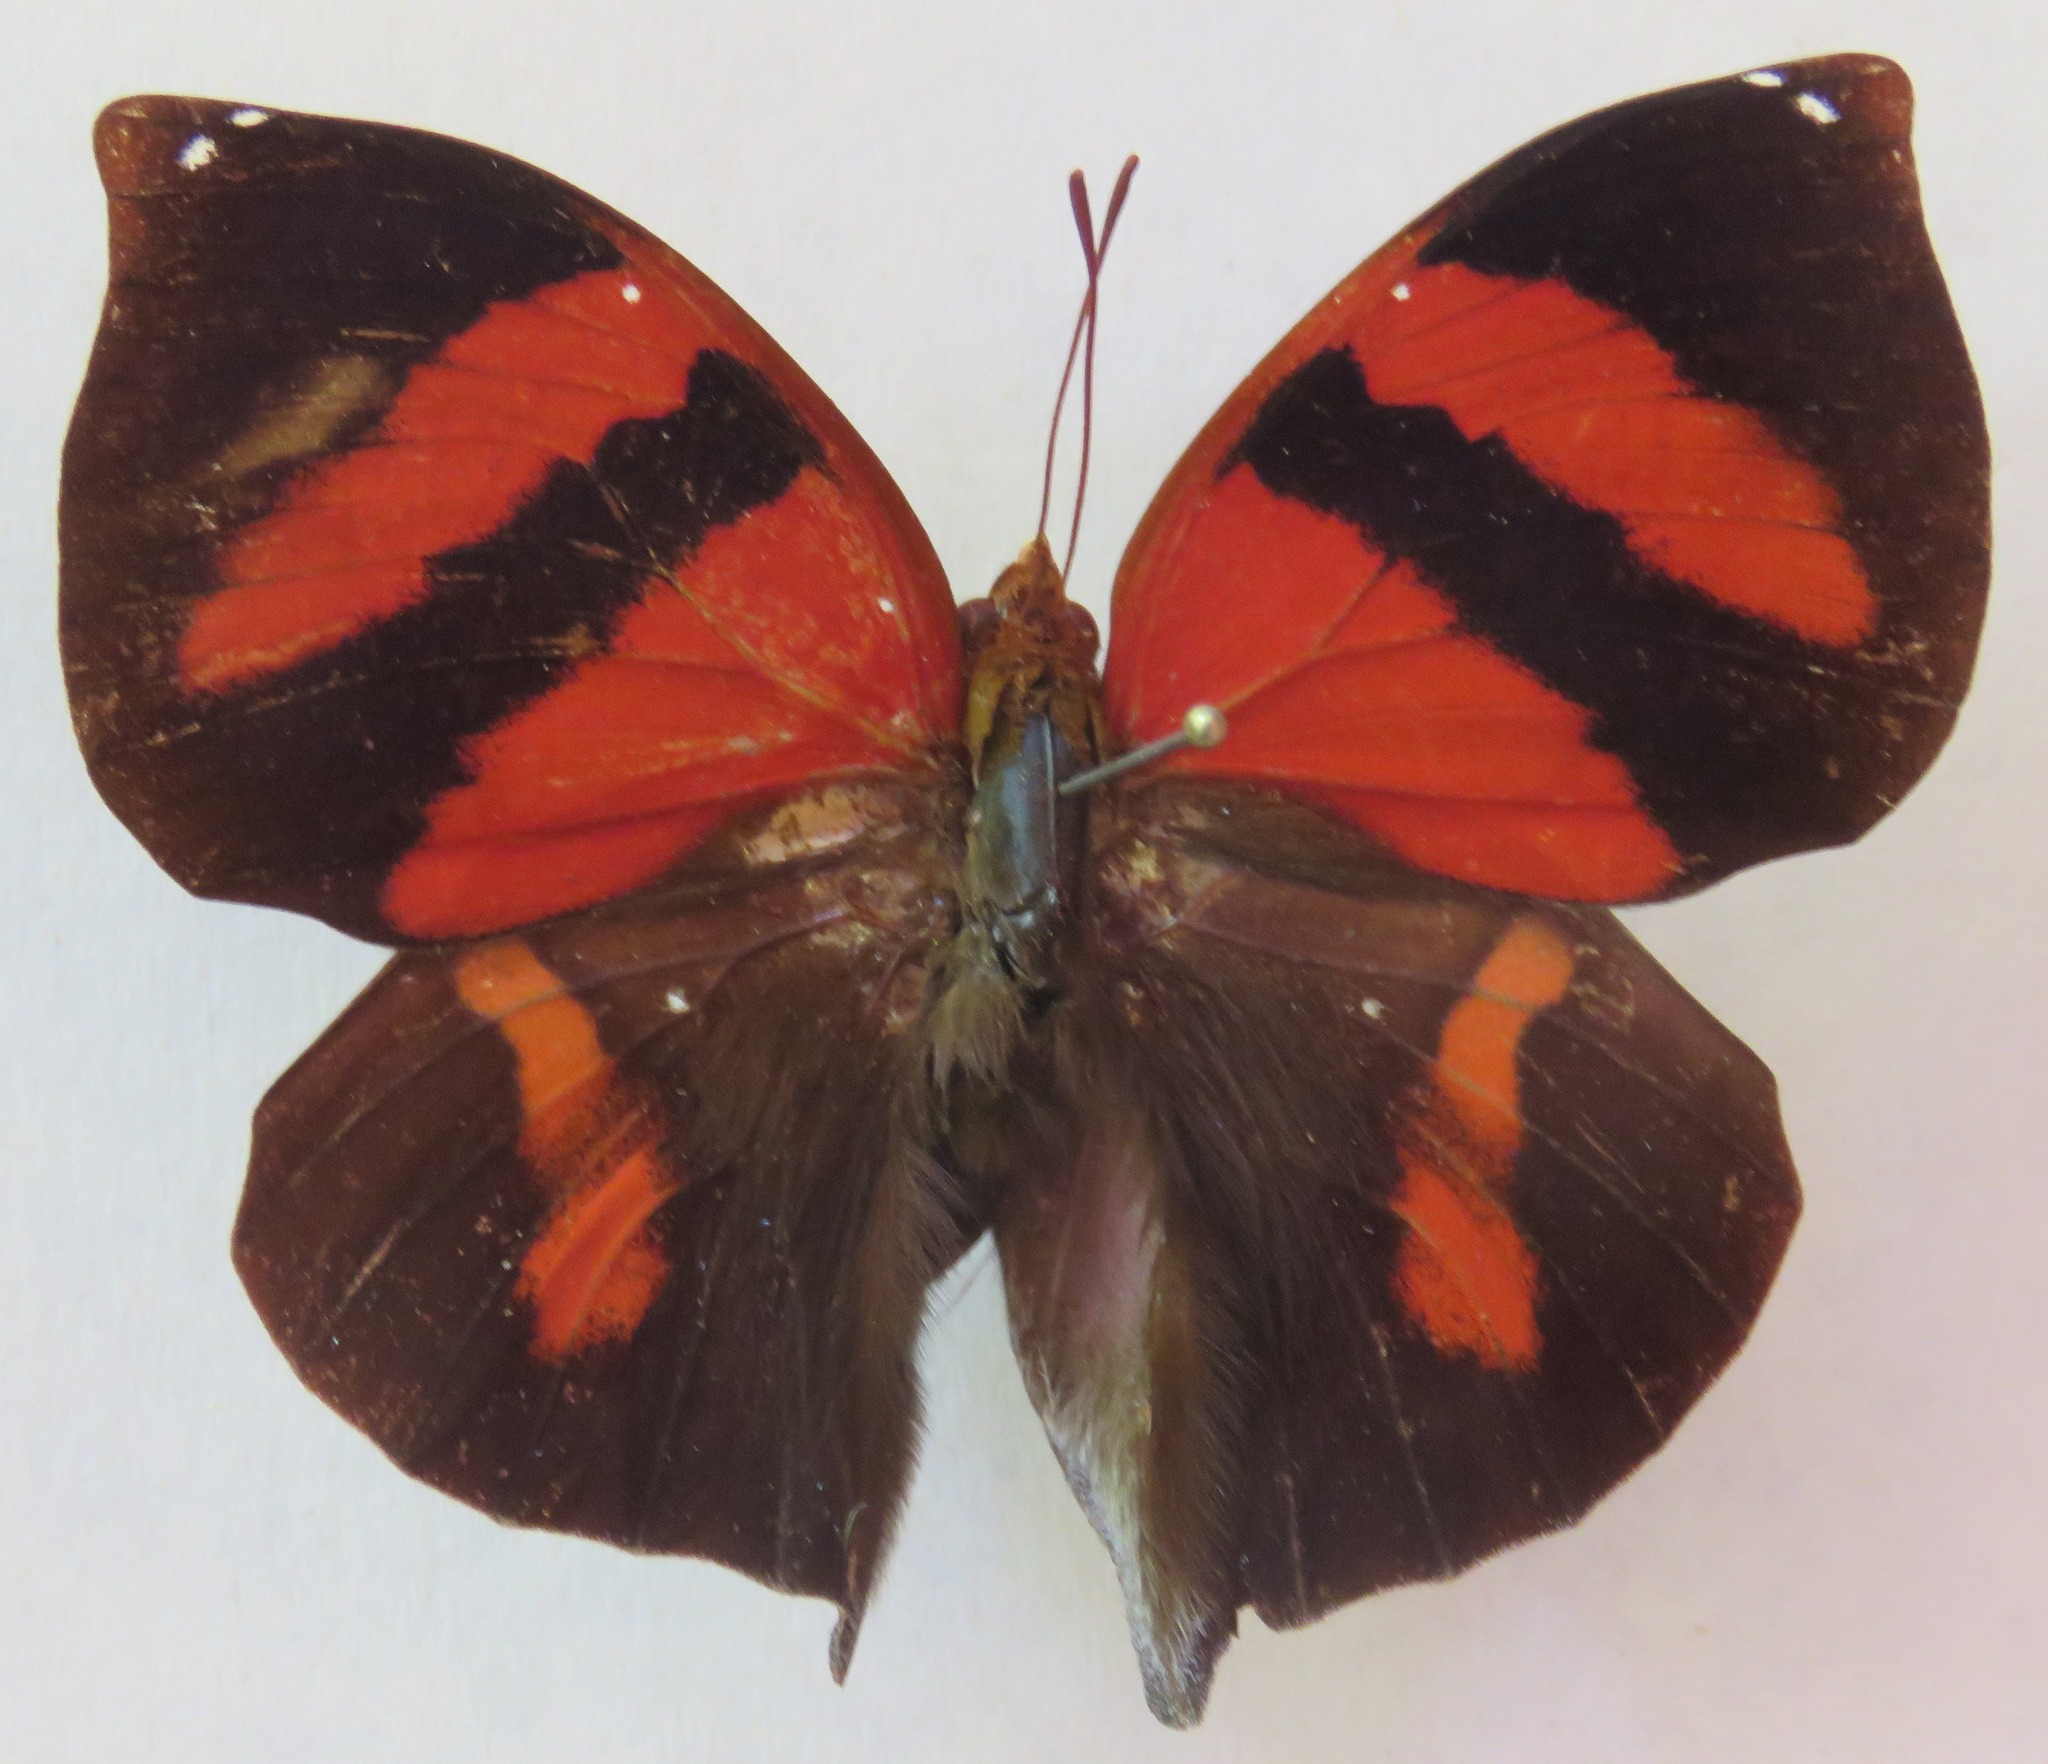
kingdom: Animalia
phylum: Arthropoda
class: Insecta
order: Lepidoptera
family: Nymphalidae
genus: Siderone
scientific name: Siderone galanthis
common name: Red-striped leafwing
